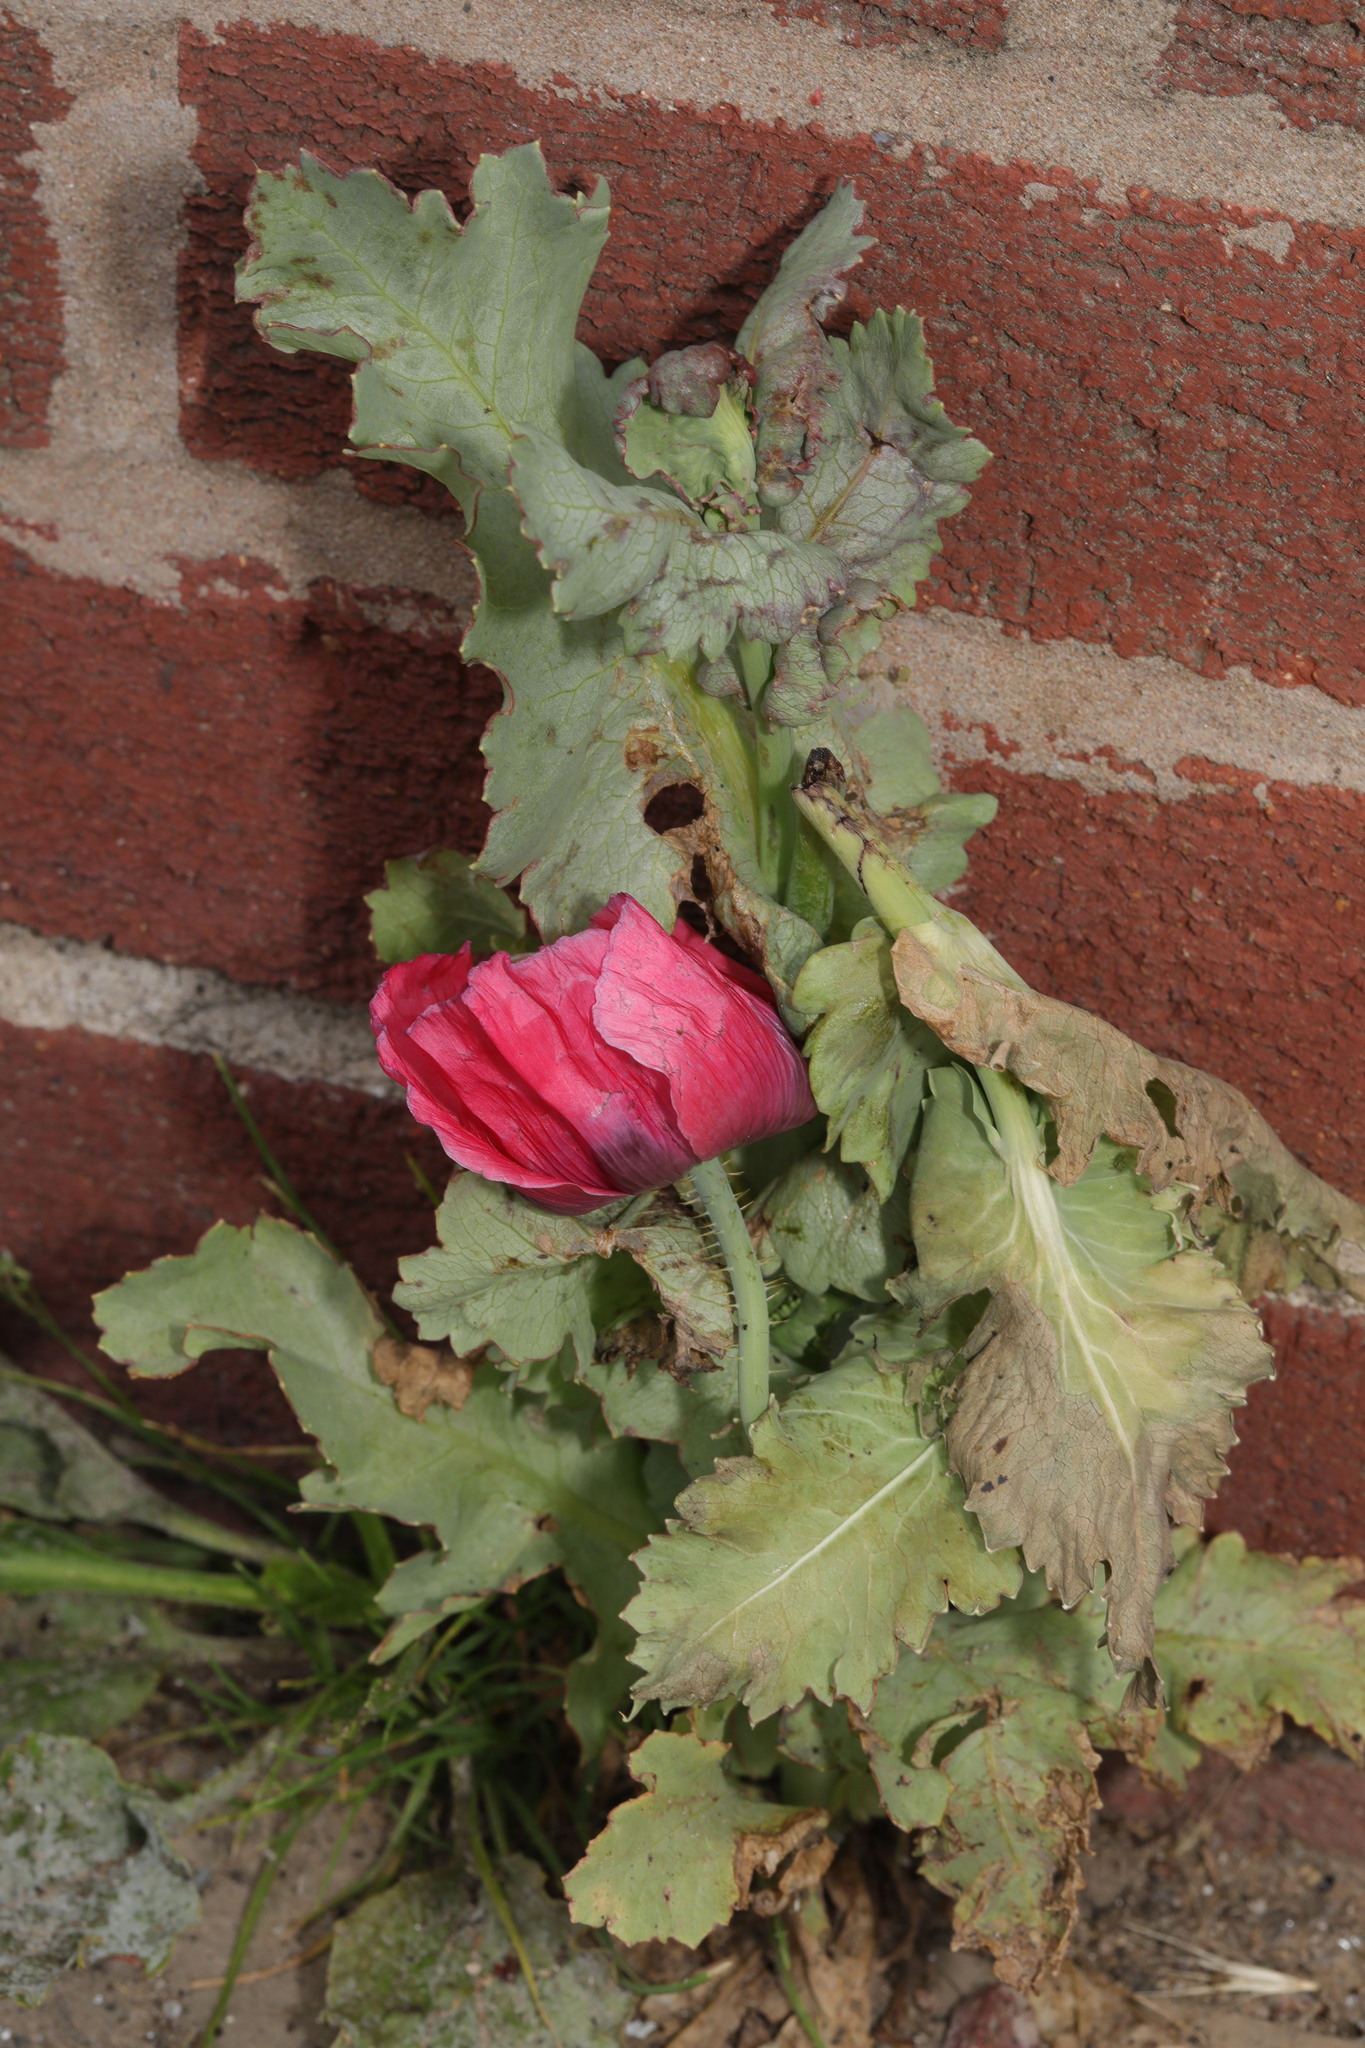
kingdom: Plantae
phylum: Tracheophyta
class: Magnoliopsida
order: Ranunculales
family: Papaveraceae
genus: Papaver
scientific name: Papaver somniferum
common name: Opium poppy
